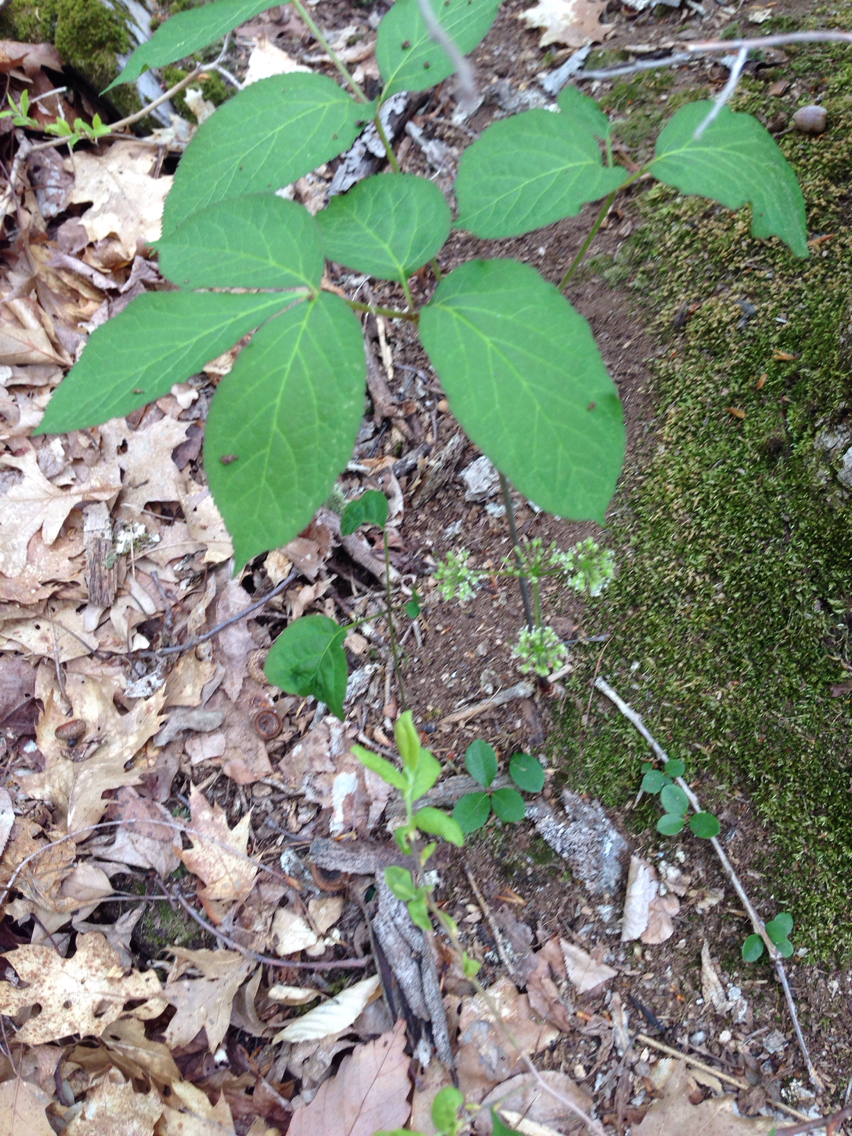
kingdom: Plantae
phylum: Tracheophyta
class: Magnoliopsida
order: Apiales
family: Araliaceae
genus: Aralia
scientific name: Aralia nudicaulis
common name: Wild sarsaparilla
